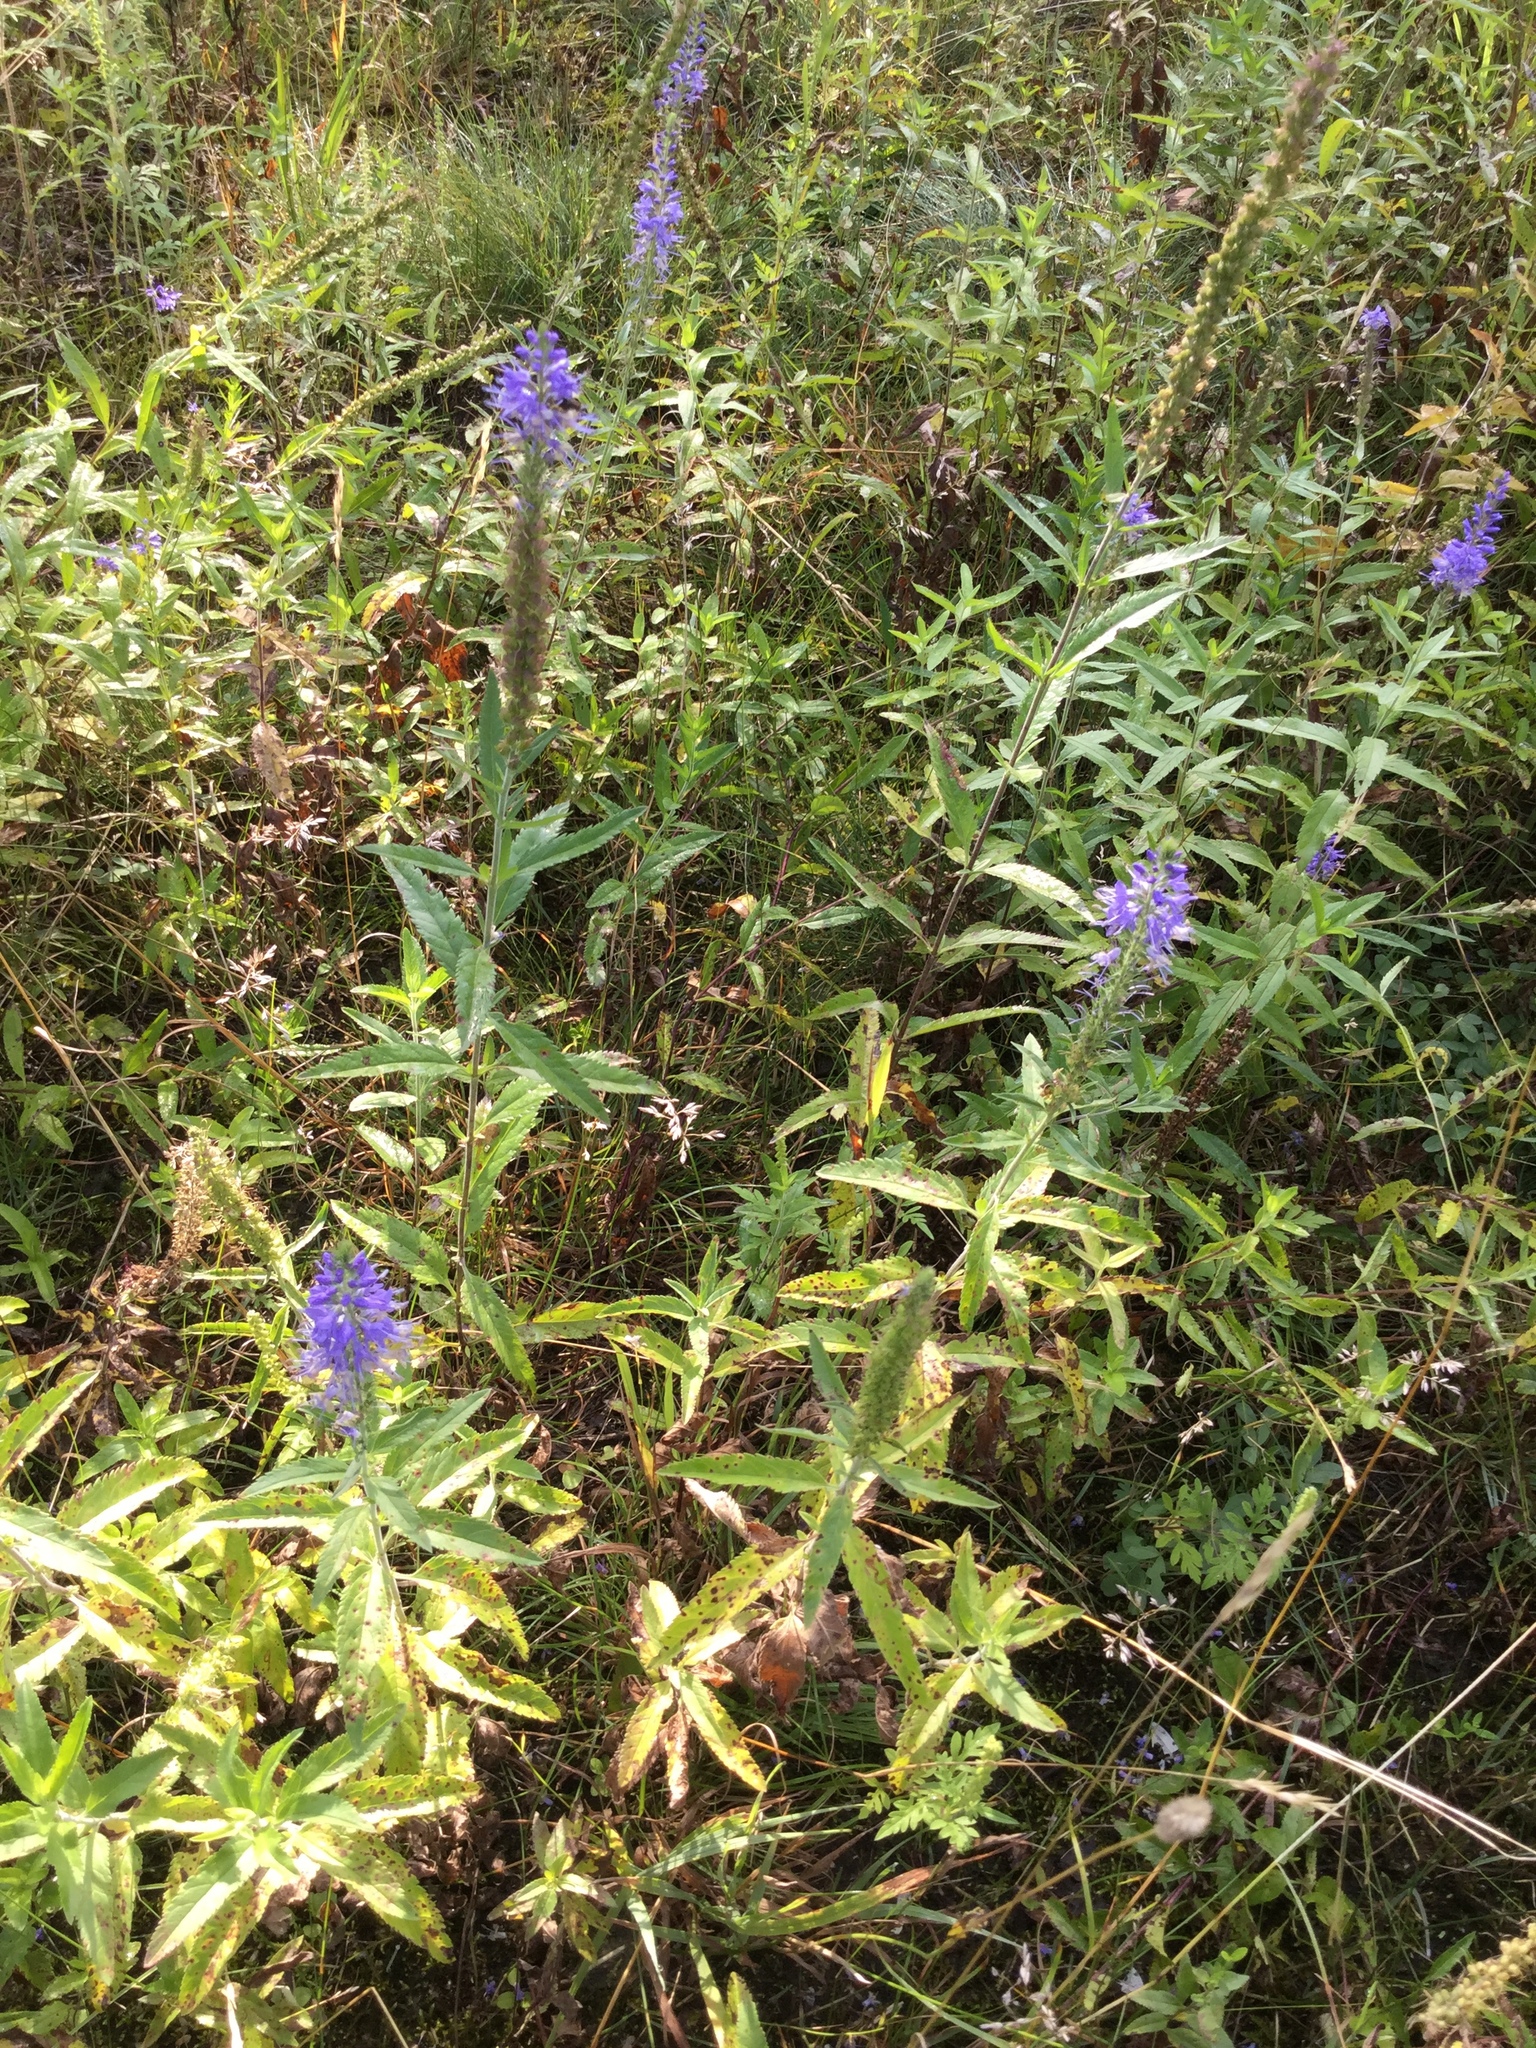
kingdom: Plantae
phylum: Tracheophyta
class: Magnoliopsida
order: Lamiales
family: Plantaginaceae
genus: Veronica
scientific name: Veronica longifolia
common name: Garden speedwell
